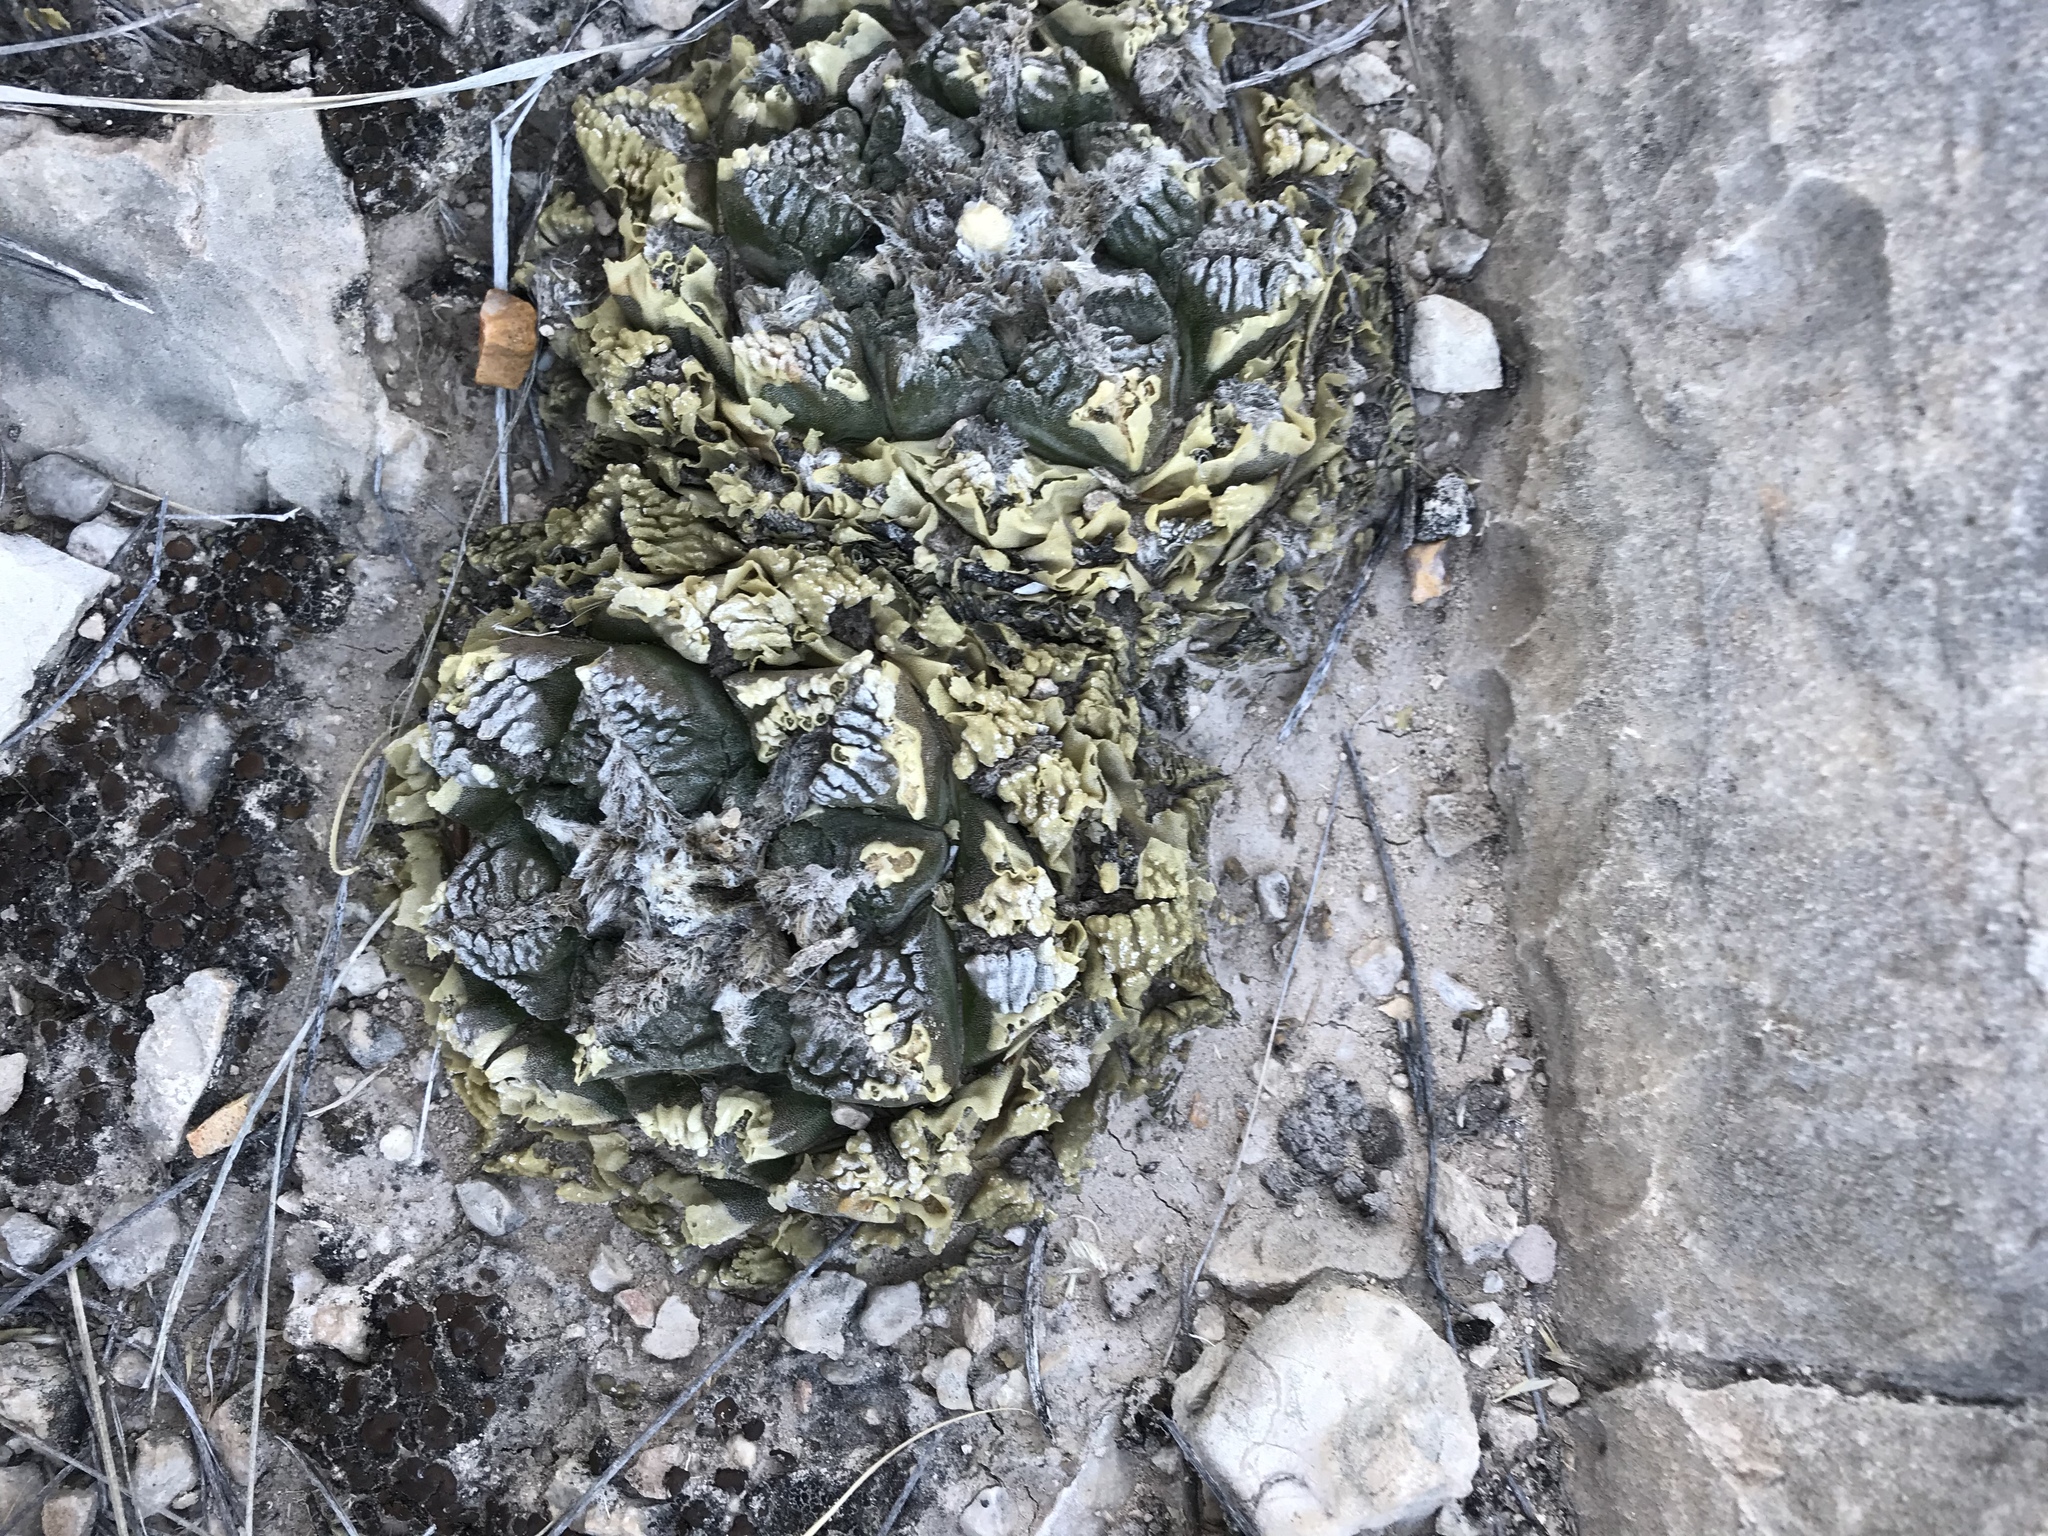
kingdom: Plantae
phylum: Tracheophyta
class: Magnoliopsida
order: Caryophyllales
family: Cactaceae
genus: Ariocarpus
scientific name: Ariocarpus fissuratus
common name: Chautle-living rock
